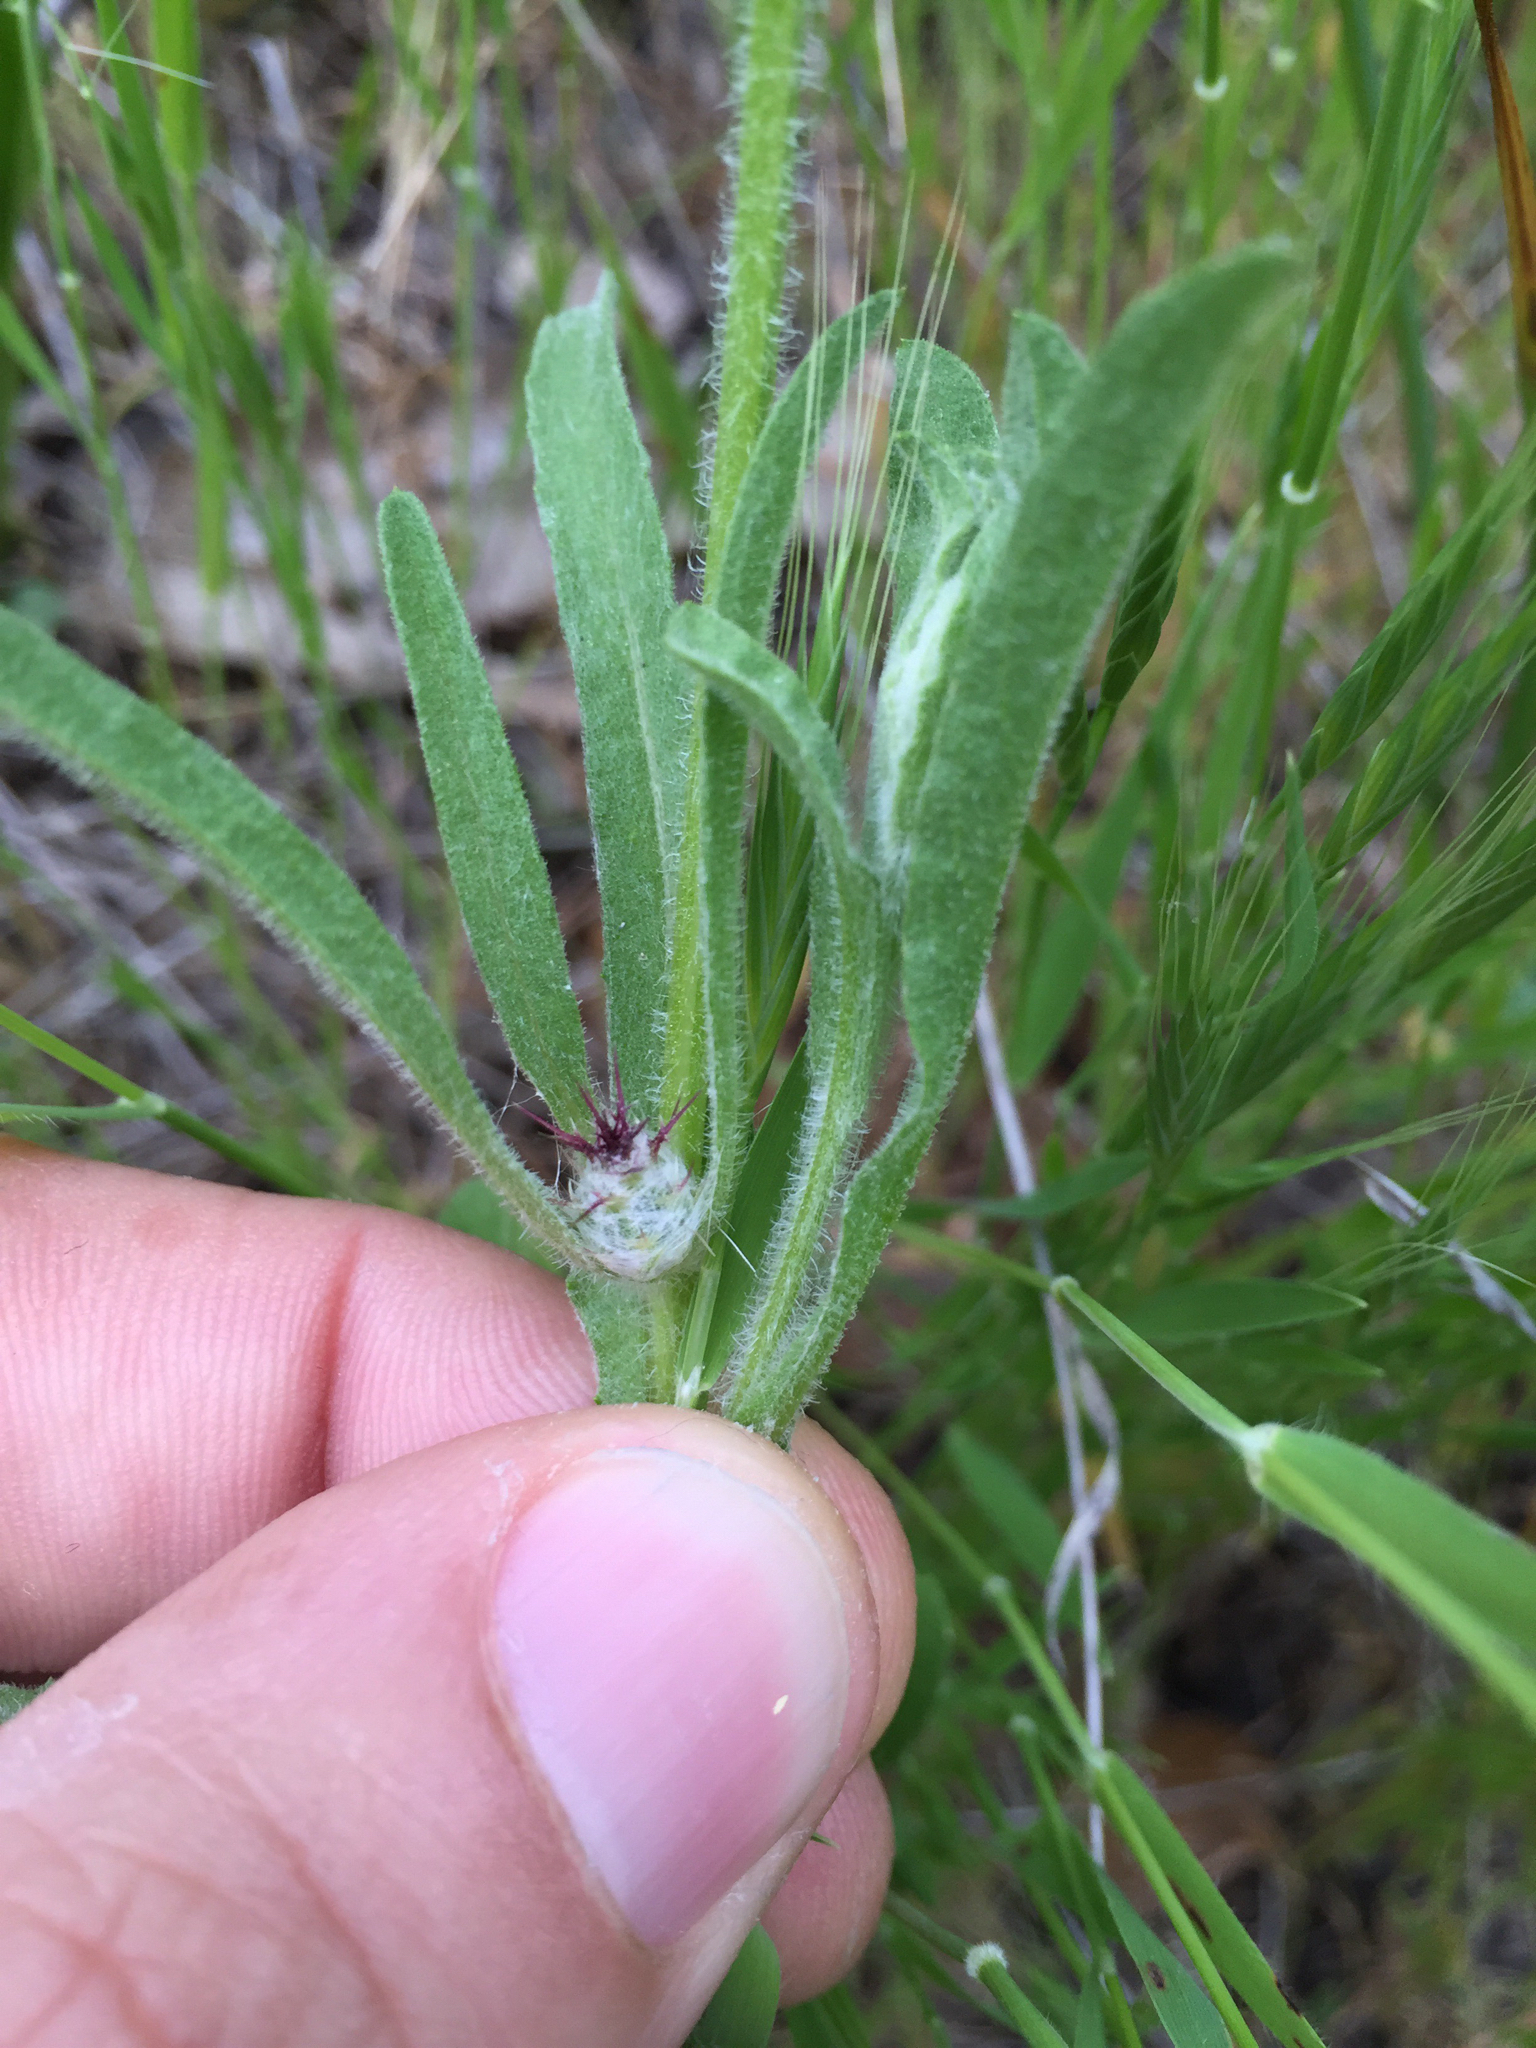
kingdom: Plantae
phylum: Tracheophyta
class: Magnoliopsida
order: Asterales
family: Asteraceae
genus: Centaurea
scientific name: Centaurea melitensis
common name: Maltese star-thistle
